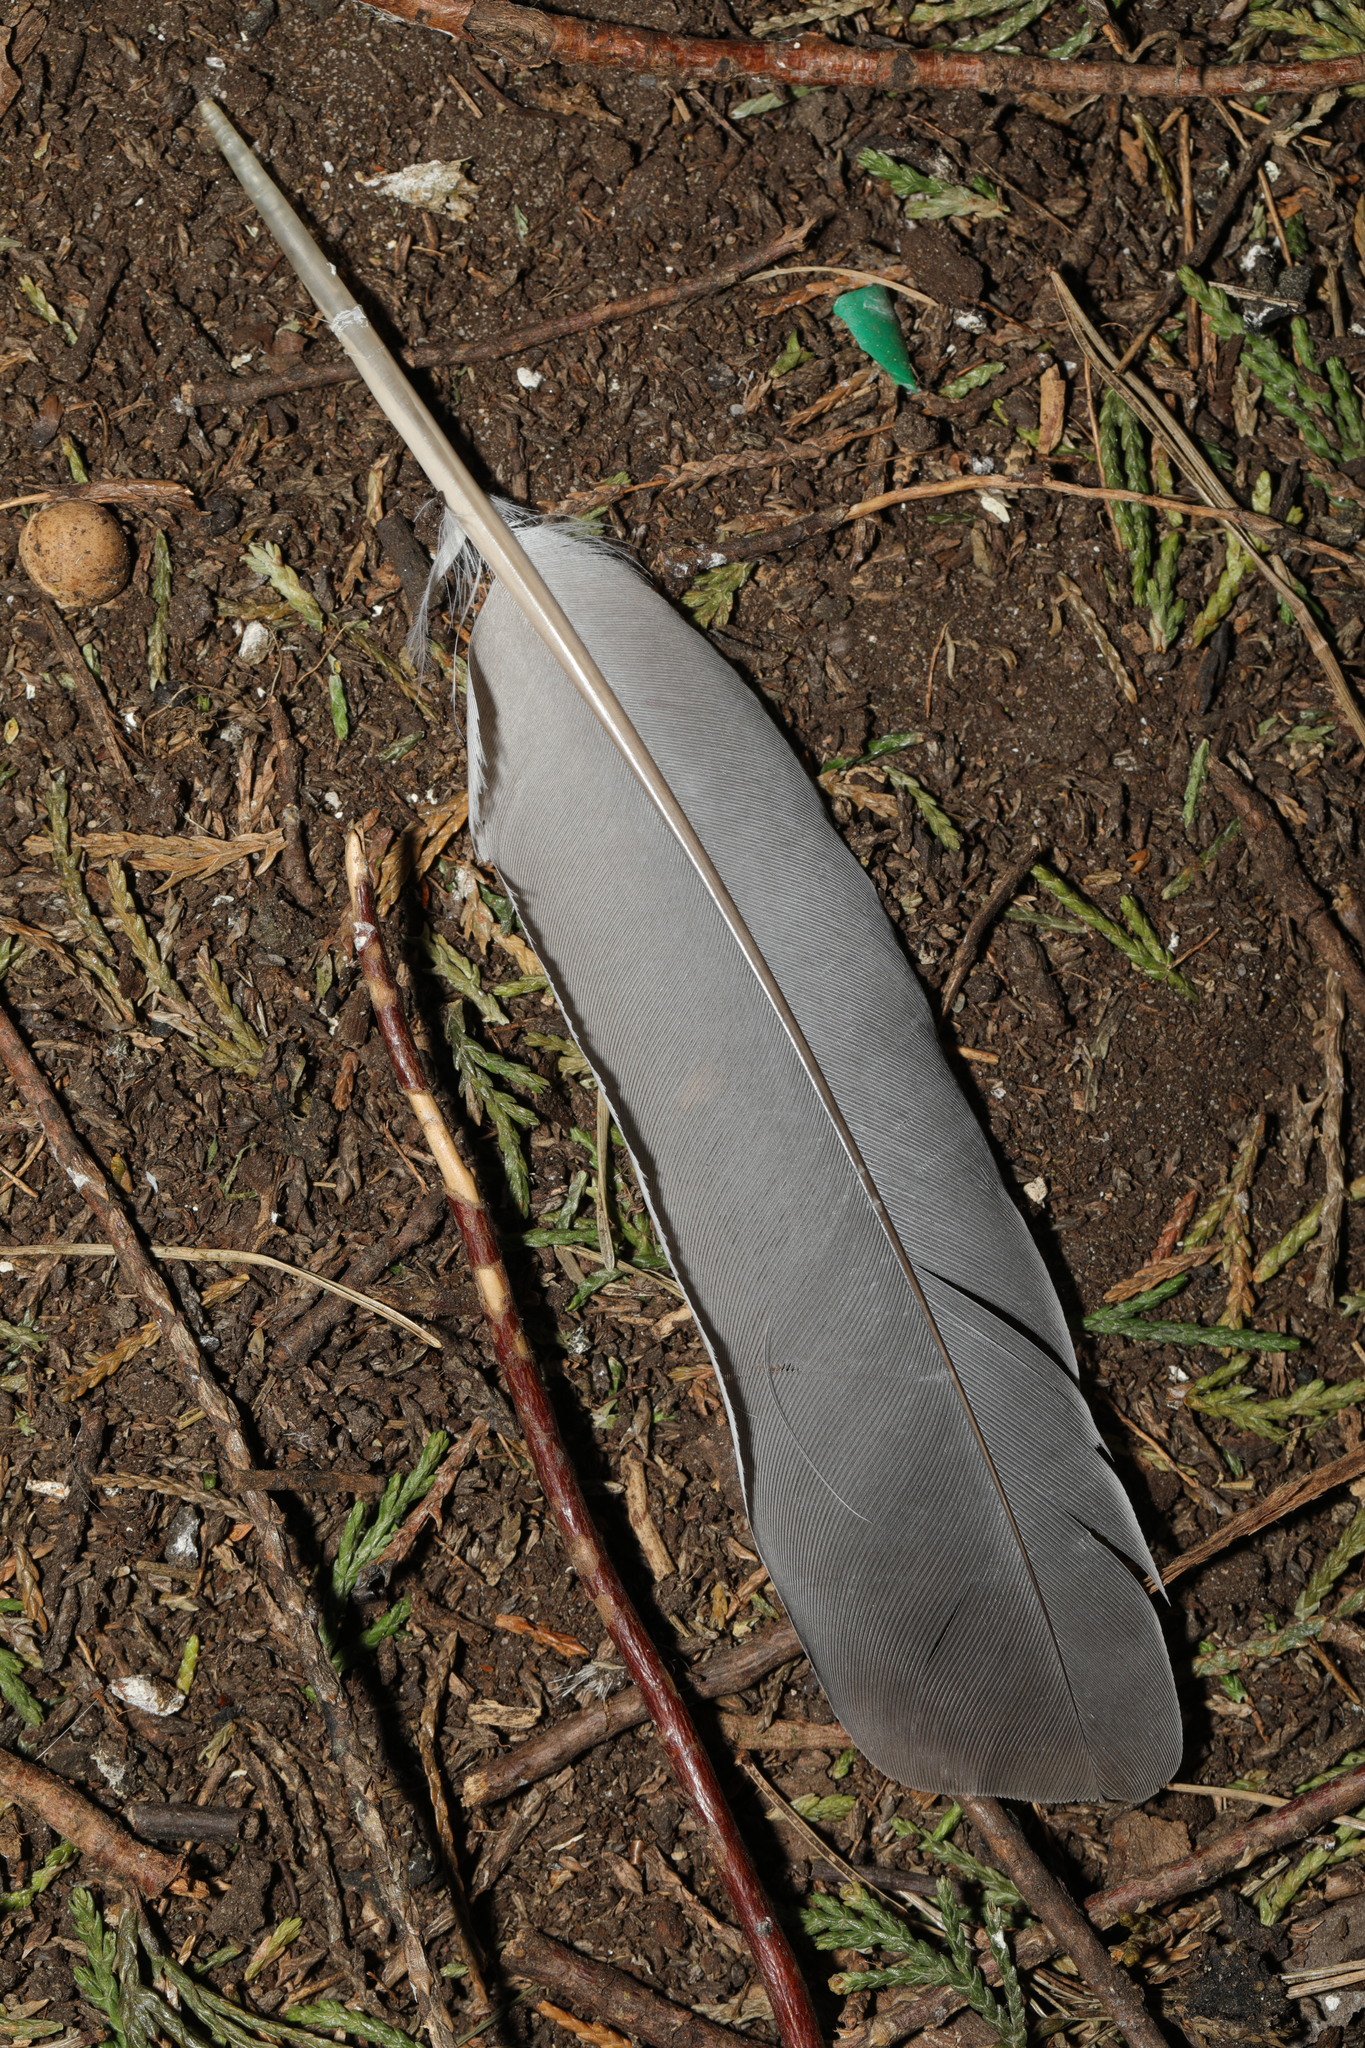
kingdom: Animalia
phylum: Chordata
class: Aves
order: Columbiformes
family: Columbidae
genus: Columba
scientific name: Columba palumbus
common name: Common wood pigeon
